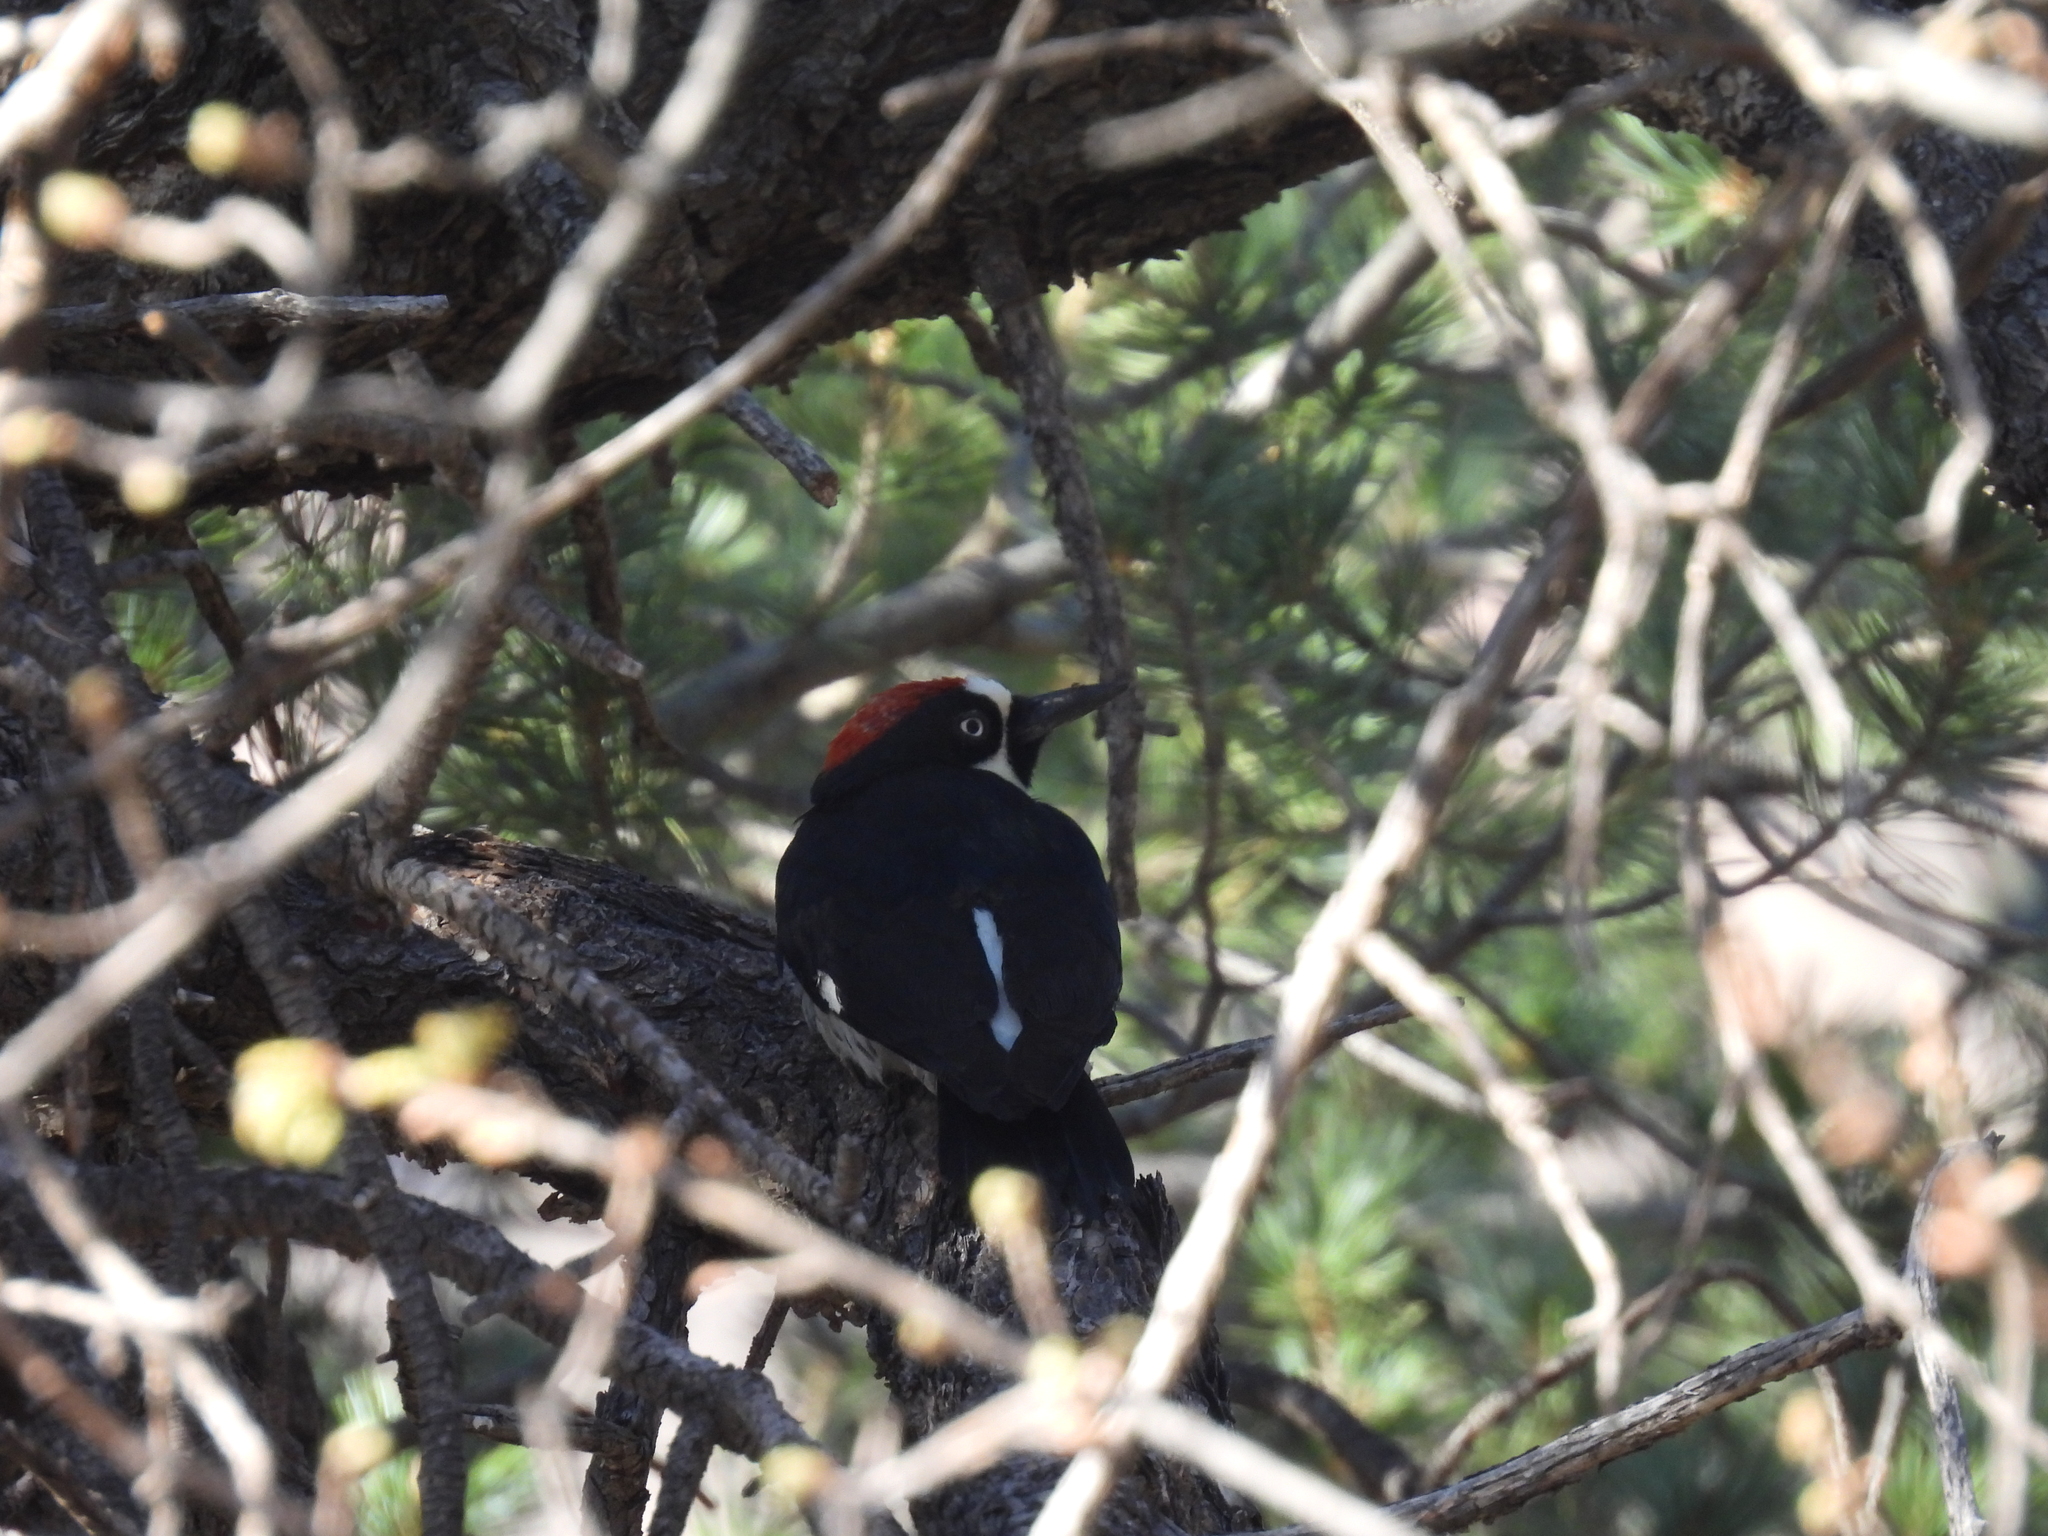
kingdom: Animalia
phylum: Chordata
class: Aves
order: Piciformes
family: Picidae
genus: Melanerpes
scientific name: Melanerpes formicivorus
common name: Acorn woodpecker
